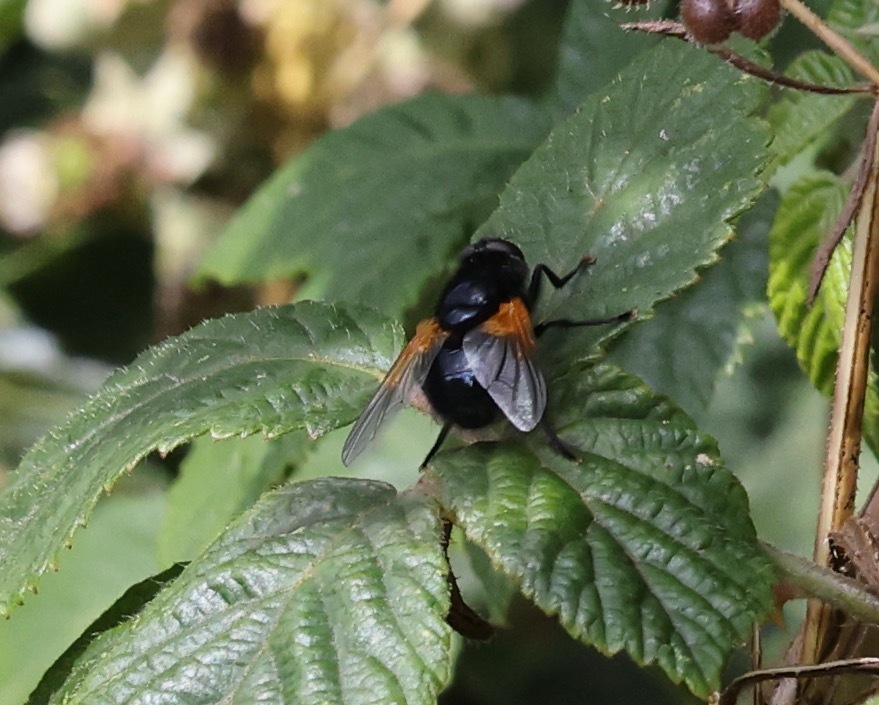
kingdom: Animalia
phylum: Arthropoda
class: Insecta
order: Diptera
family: Muscidae
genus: Mesembrina
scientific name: Mesembrina meridiana
